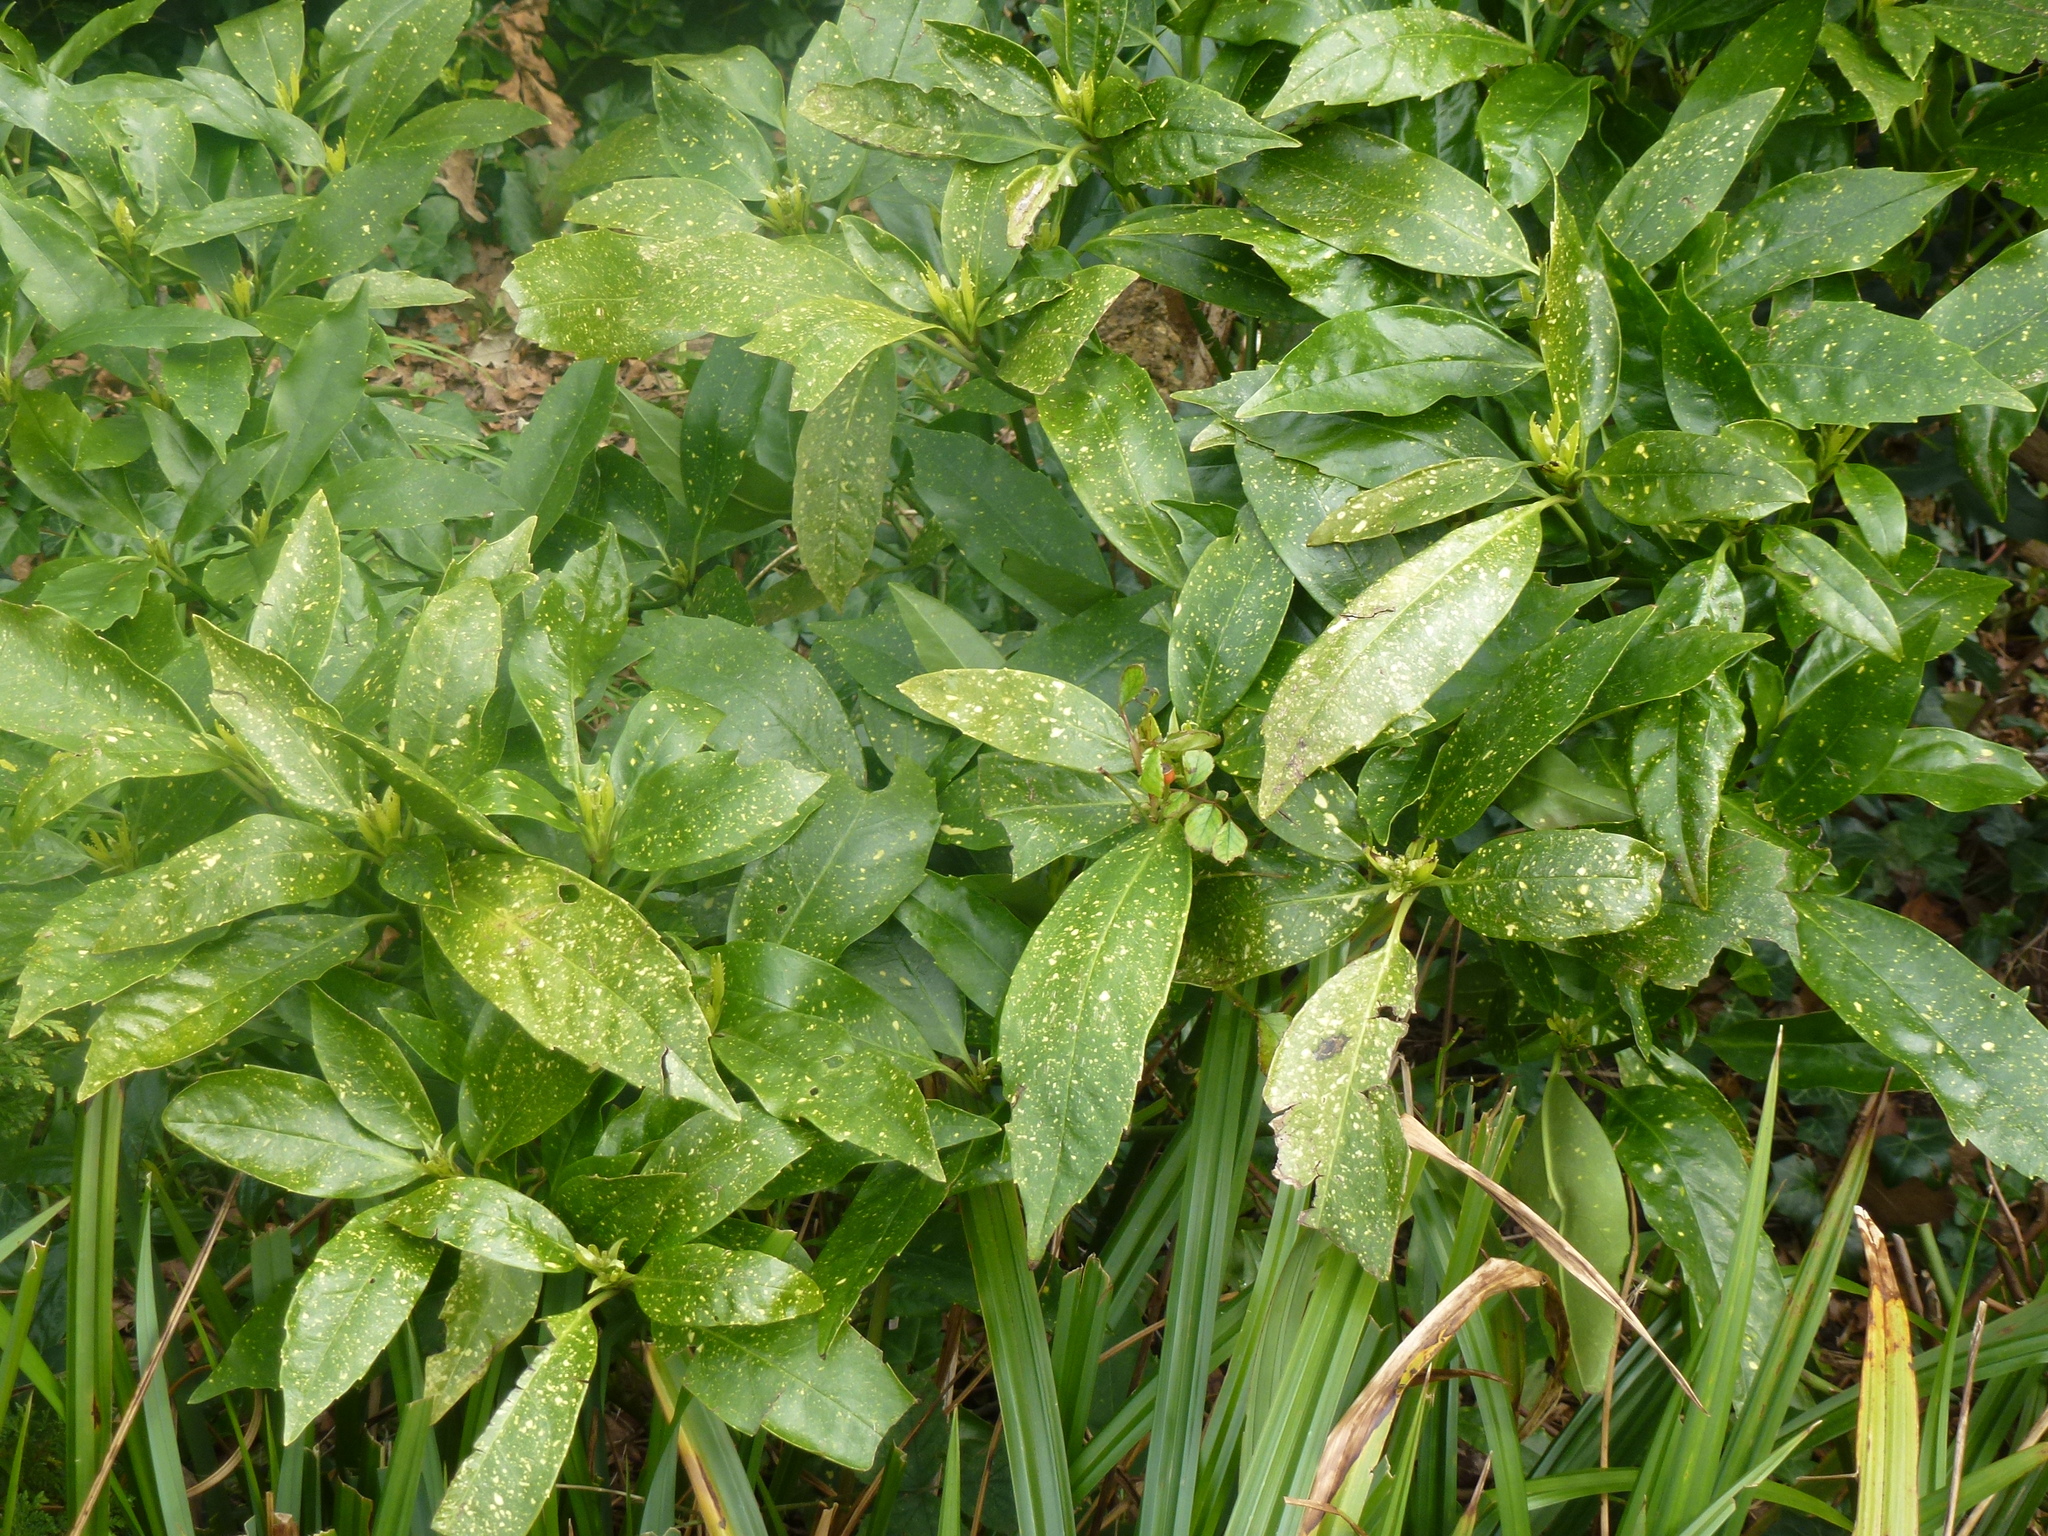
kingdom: Plantae
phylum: Tracheophyta
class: Magnoliopsida
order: Garryales
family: Garryaceae
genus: Aucuba
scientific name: Aucuba japonica
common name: Spotted-laurel
